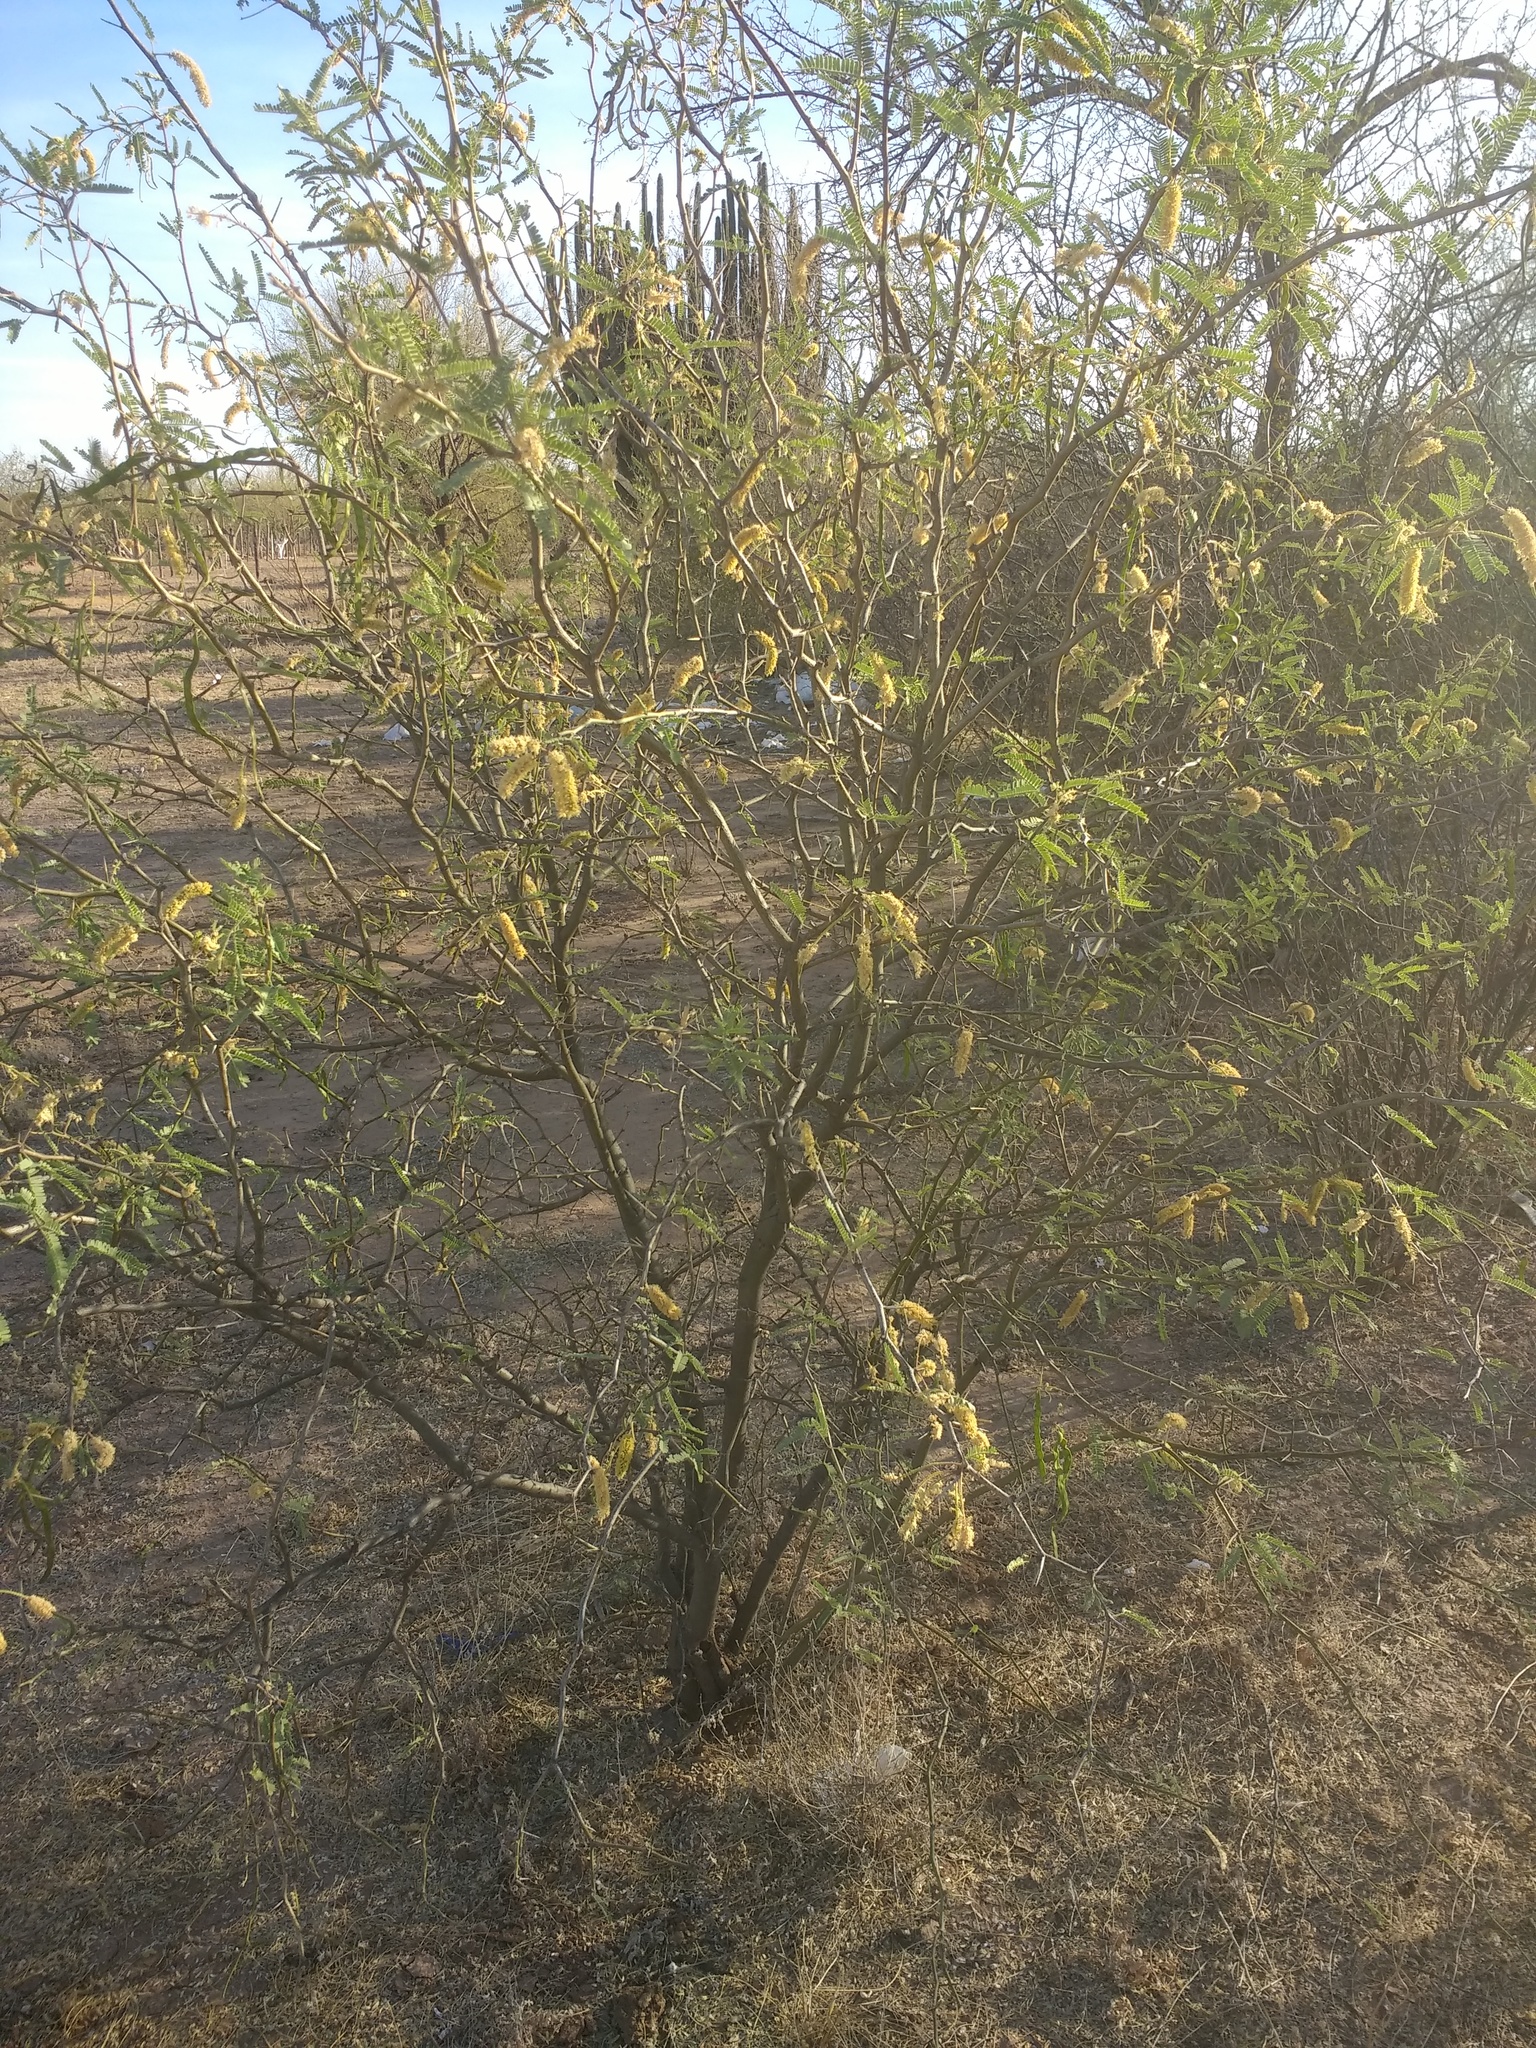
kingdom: Plantae
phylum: Tracheophyta
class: Magnoliopsida
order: Fabales
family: Fabaceae
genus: Prosopis
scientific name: Prosopis velutina
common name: Velvet mesquite
